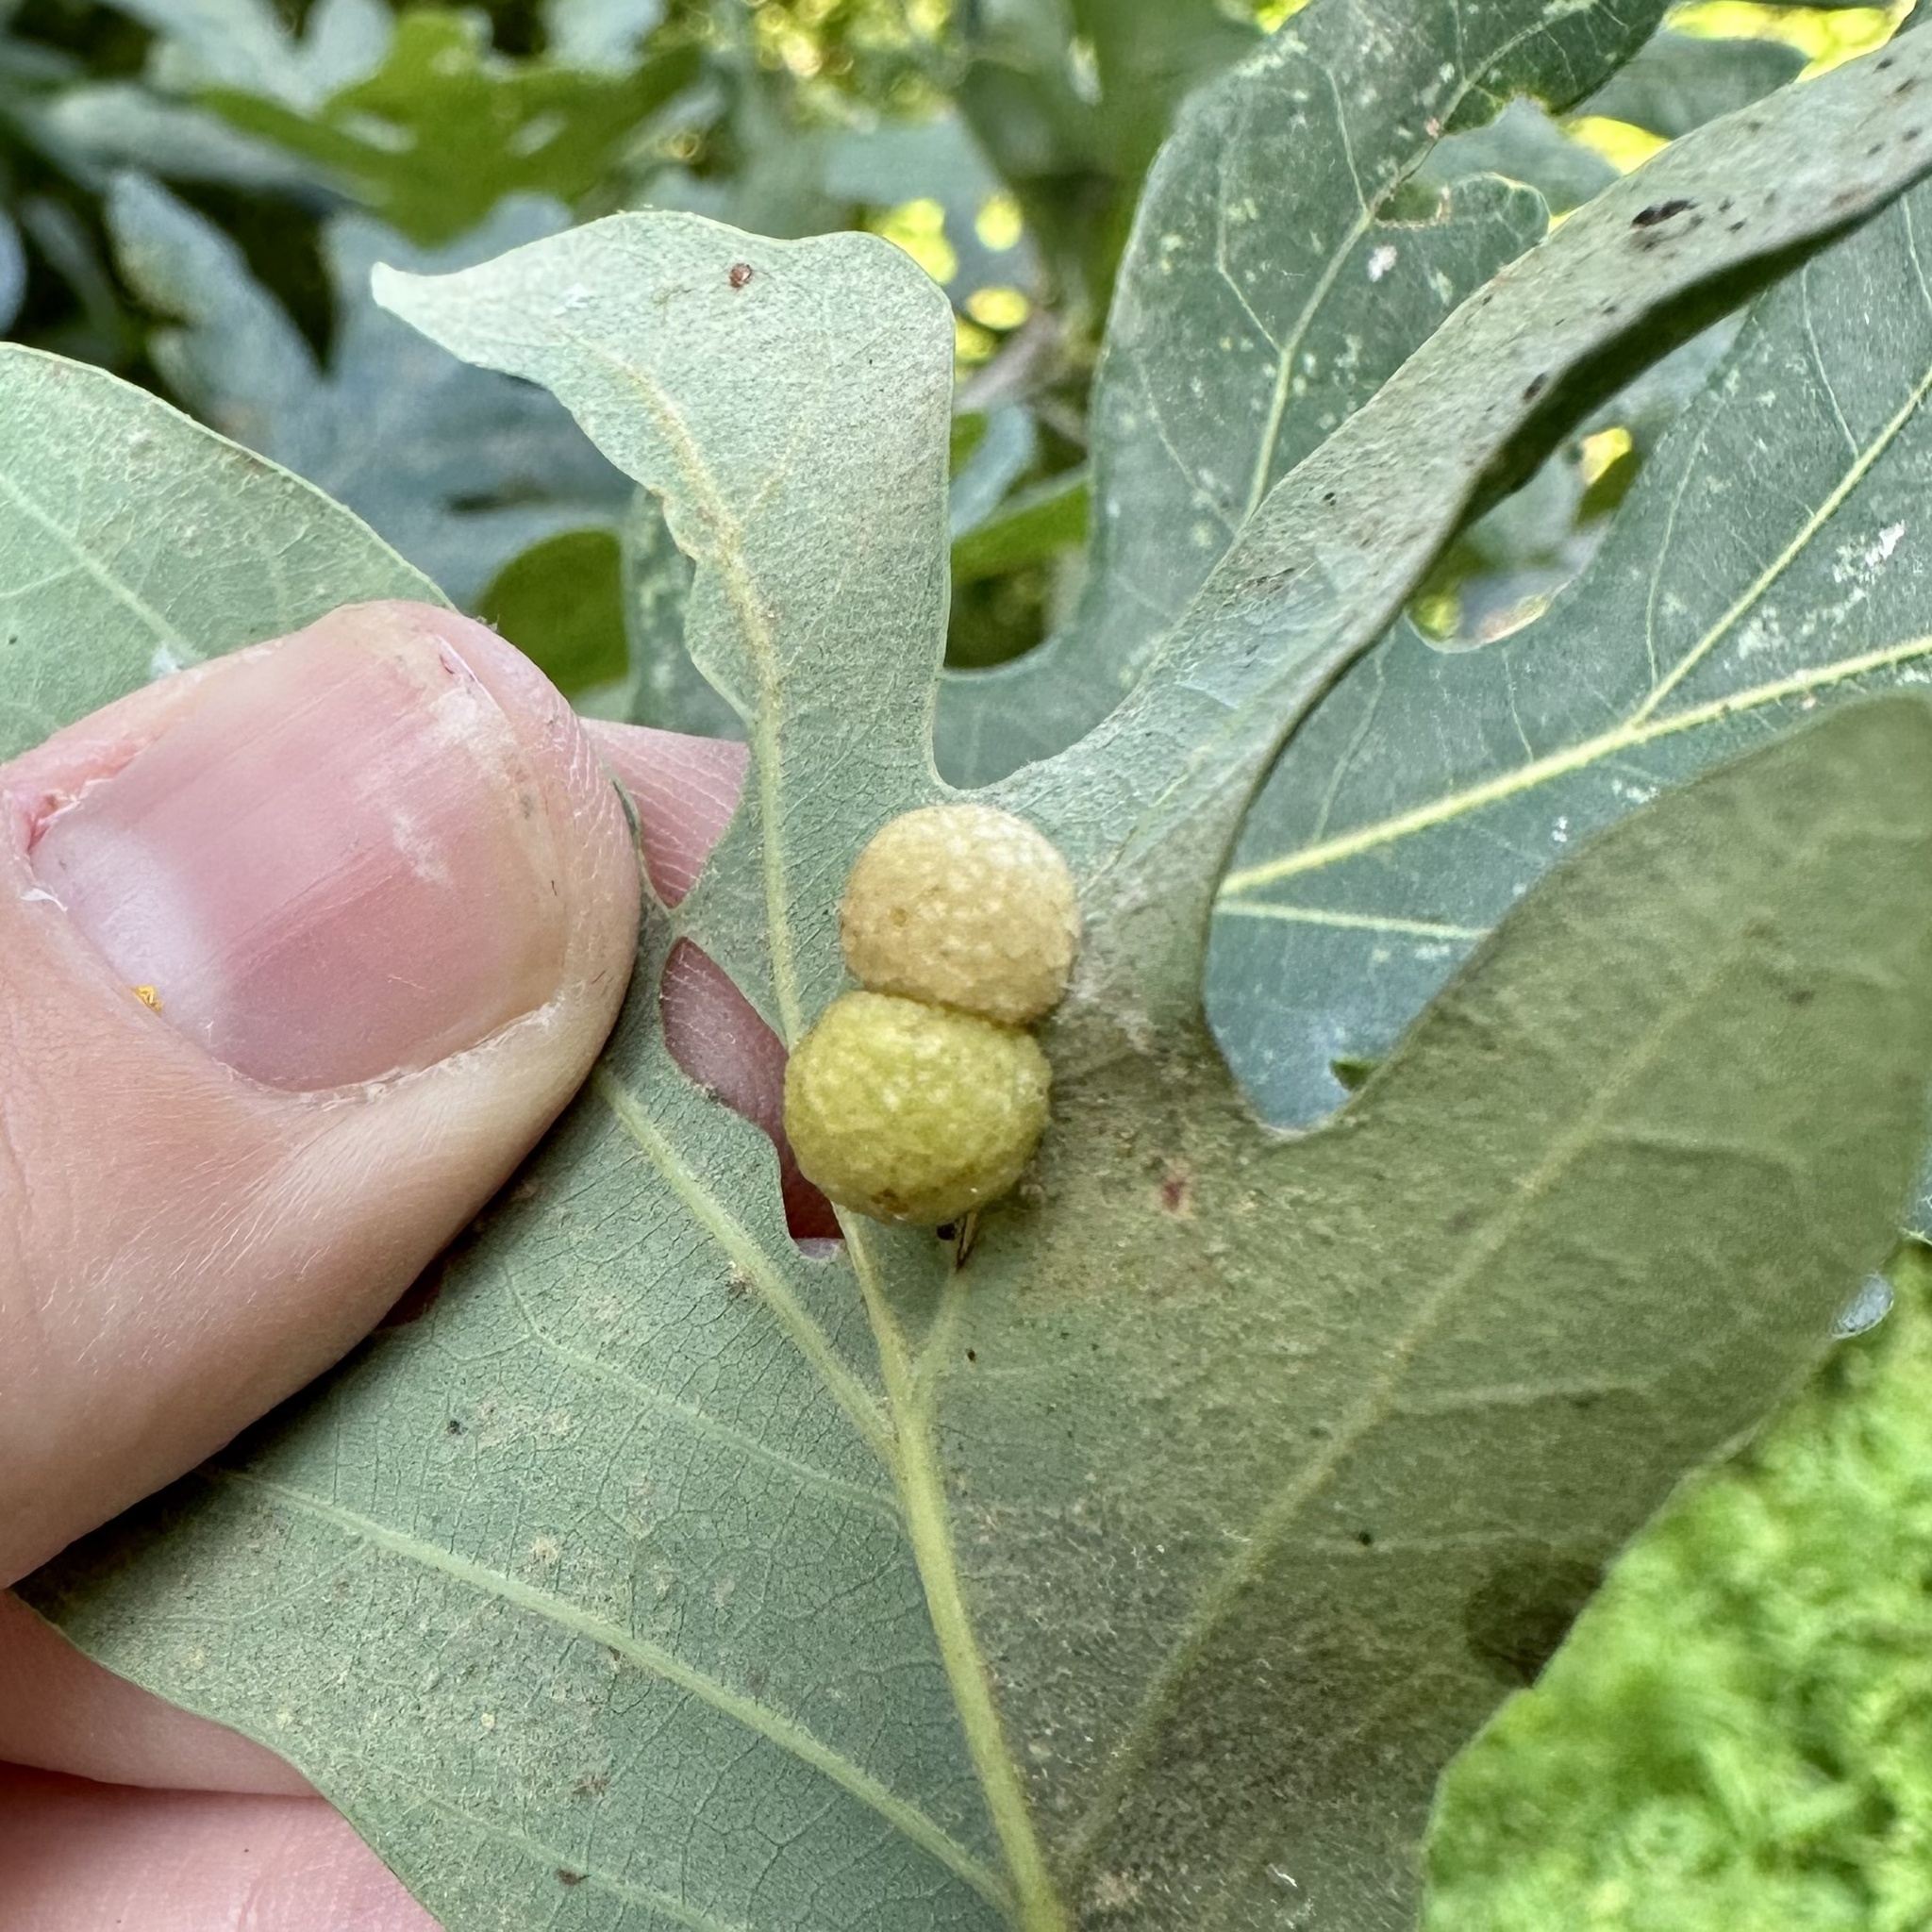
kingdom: Animalia
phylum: Arthropoda
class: Insecta
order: Hymenoptera
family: Cynipidae
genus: Acraspis
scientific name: Acraspis
